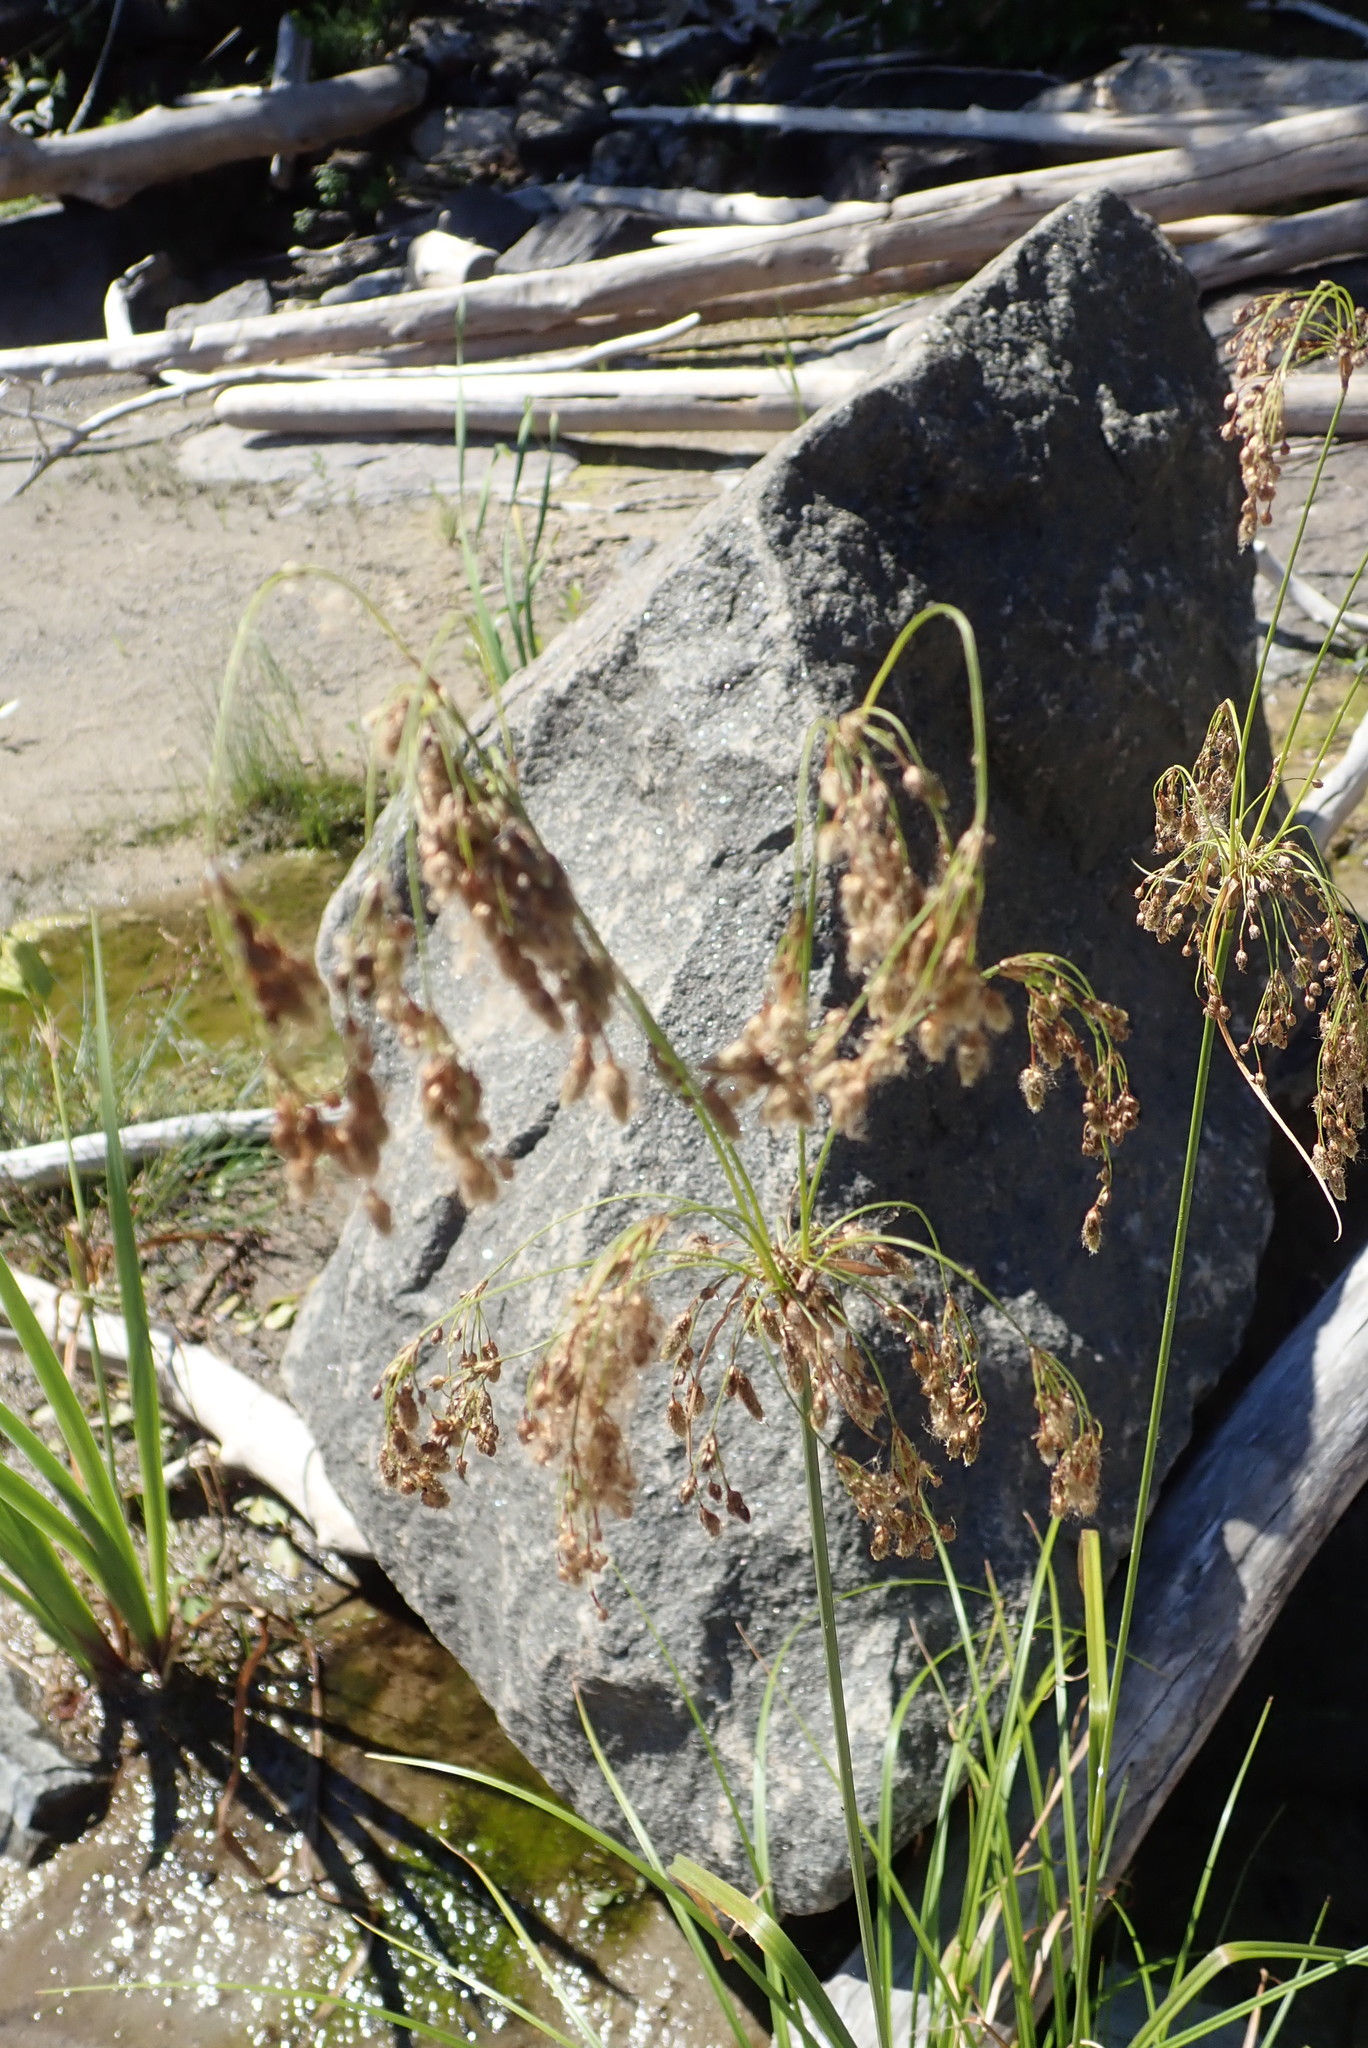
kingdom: Plantae
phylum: Tracheophyta
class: Liliopsida
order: Poales
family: Cyperaceae
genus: Scirpus
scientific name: Scirpus cyperinus
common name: Black-sheathed bulrush
